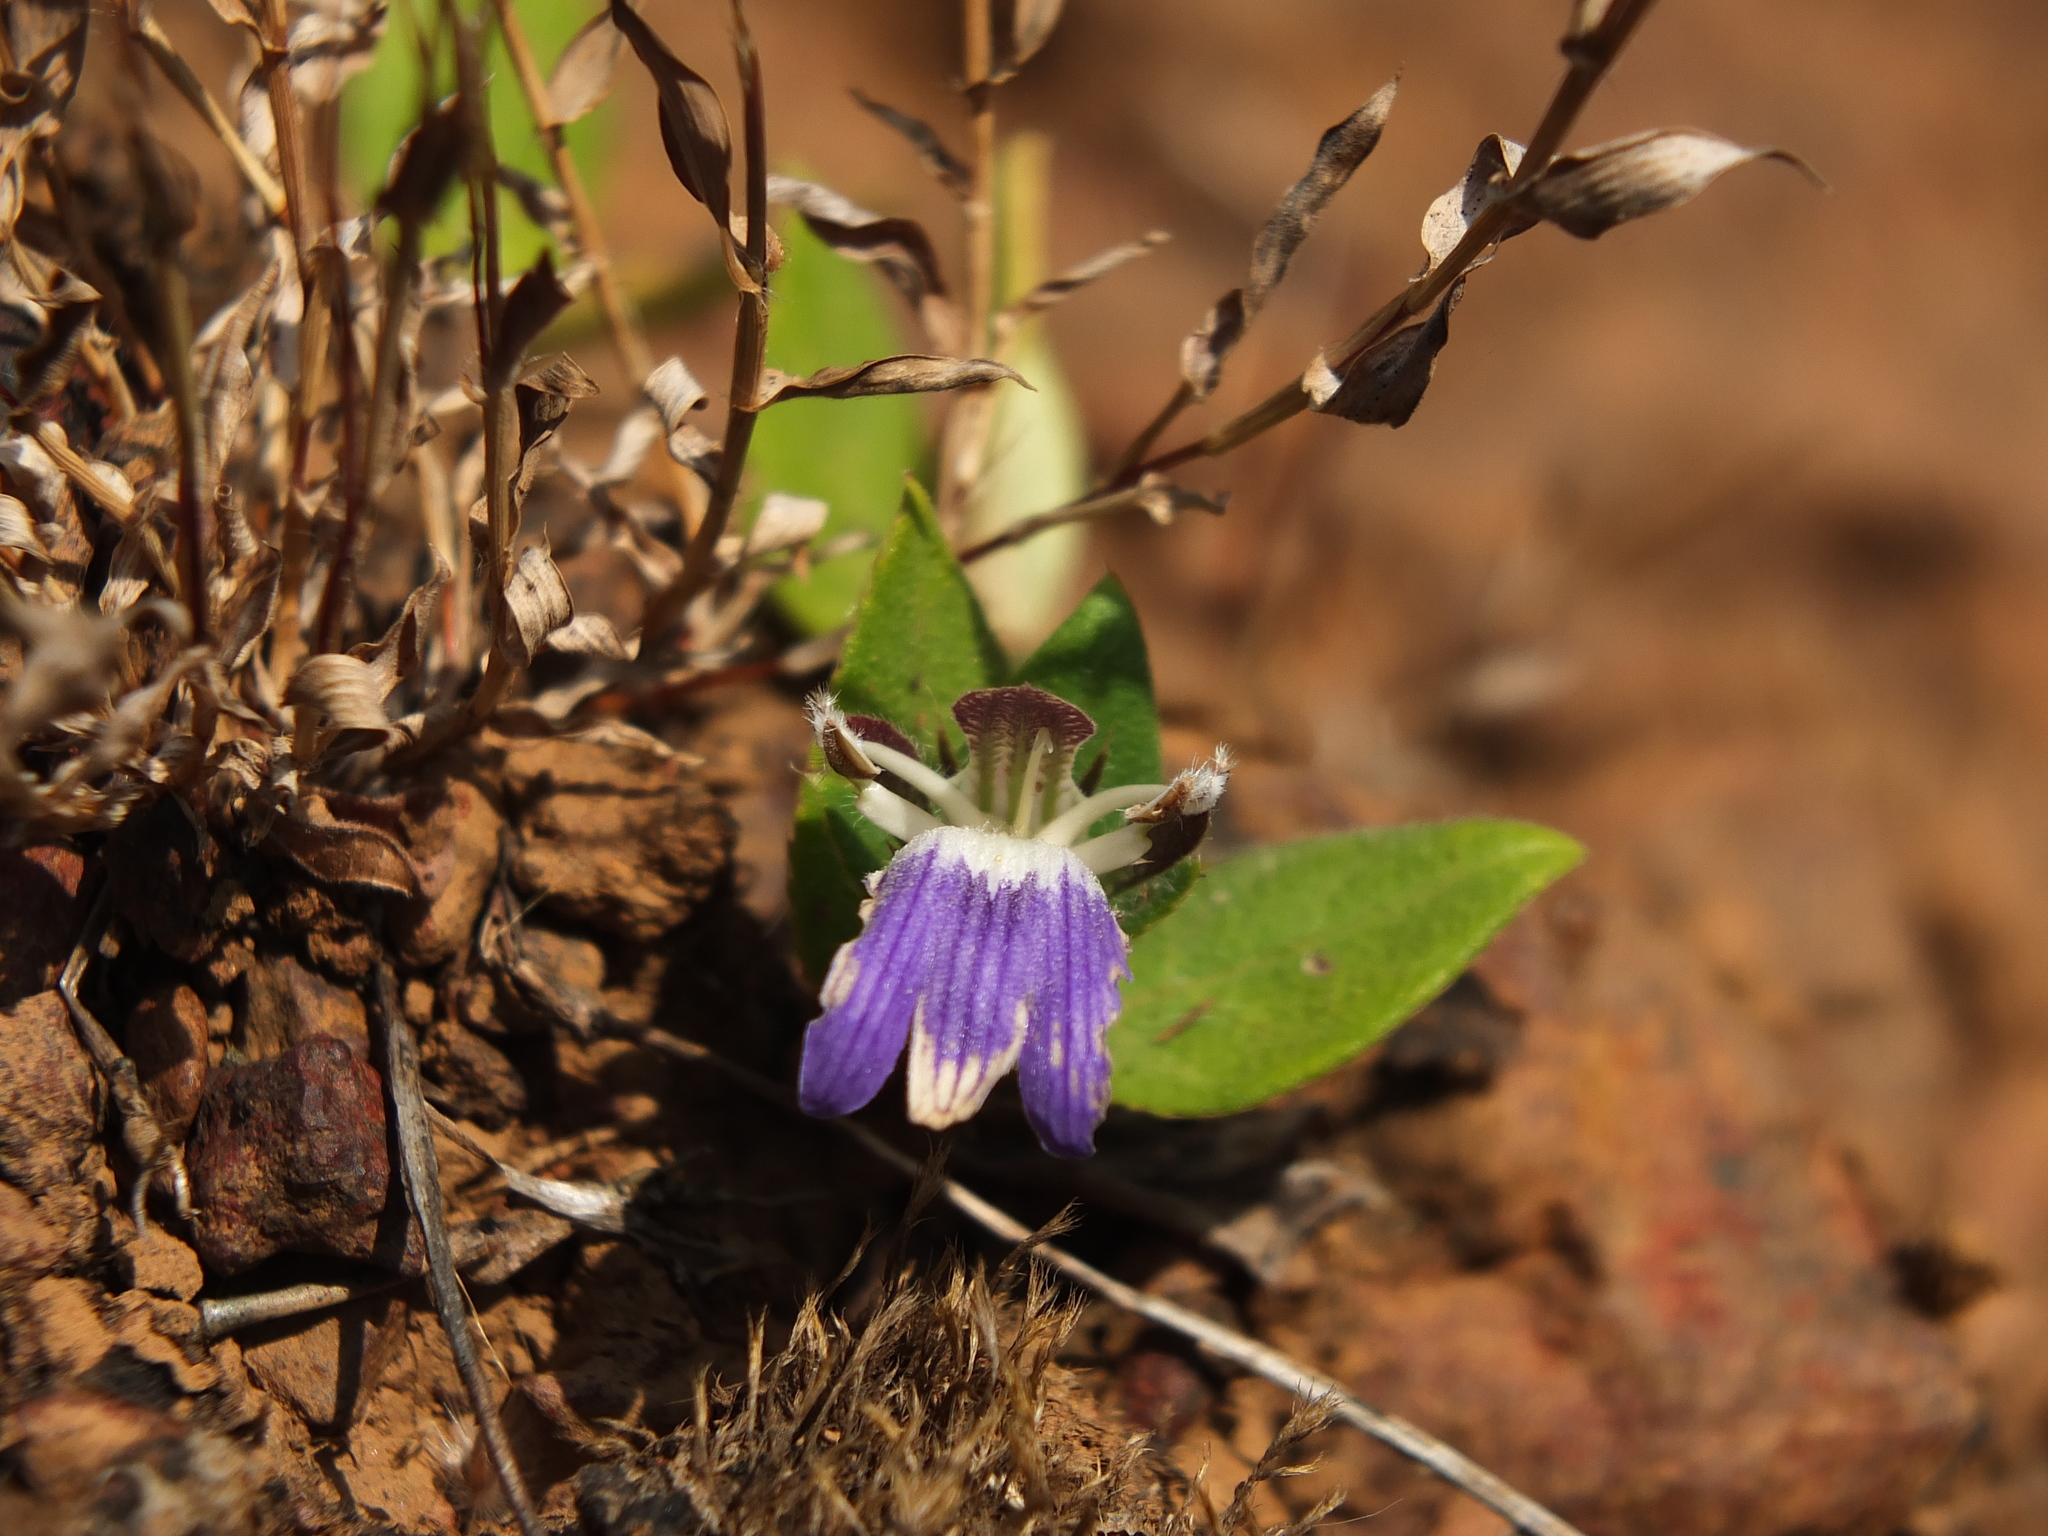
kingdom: Plantae
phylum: Tracheophyta
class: Magnoliopsida
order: Lamiales
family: Acanthaceae
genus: Cynarospermum
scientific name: Cynarospermum asperrimum
